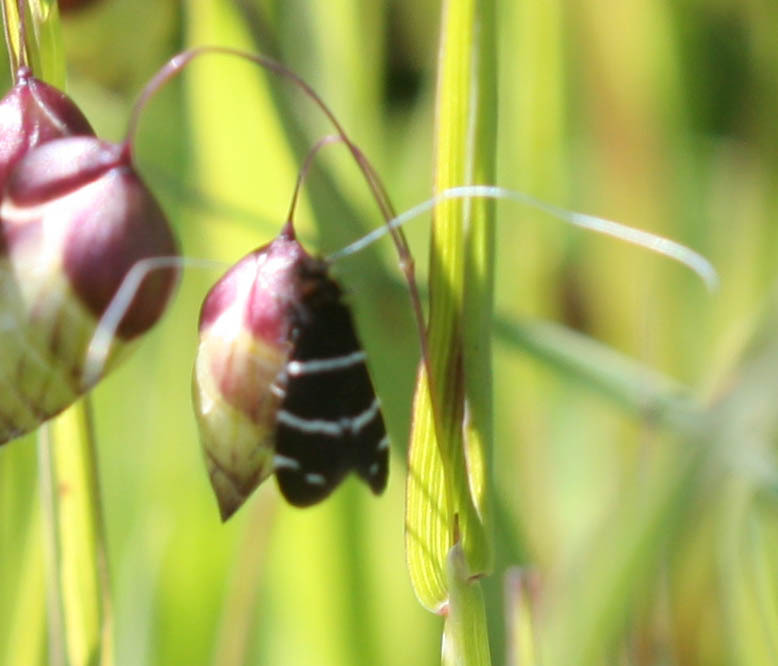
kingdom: Animalia
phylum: Arthropoda
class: Insecta
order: Lepidoptera
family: Adelidae
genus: Adela
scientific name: Adela trigrapha
